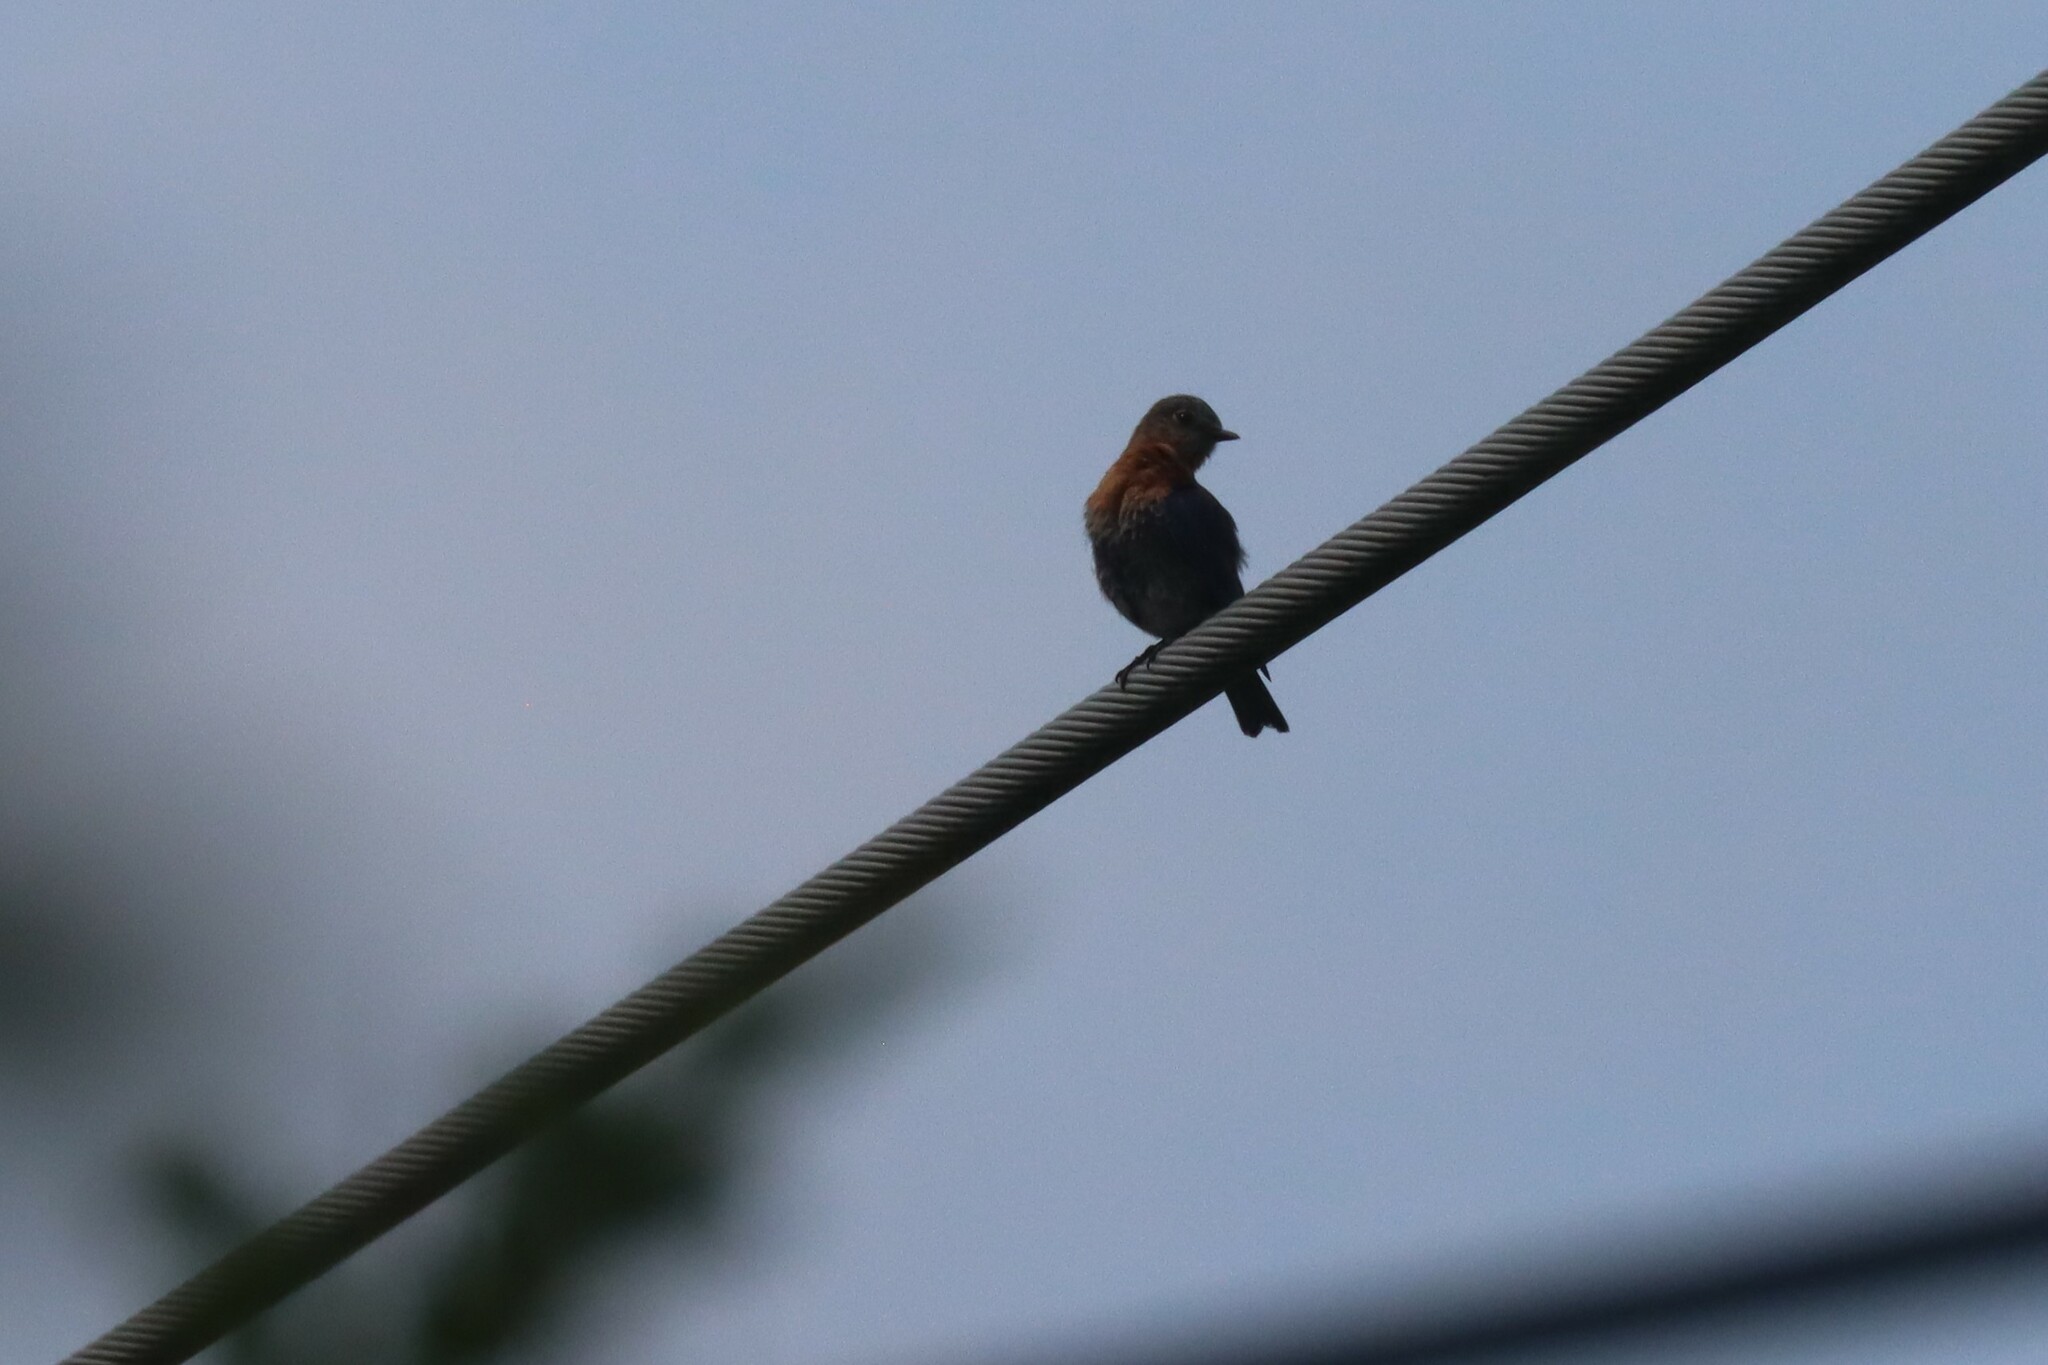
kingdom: Animalia
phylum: Chordata
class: Aves
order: Passeriformes
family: Turdidae
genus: Sialia
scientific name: Sialia sialis
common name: Eastern bluebird
